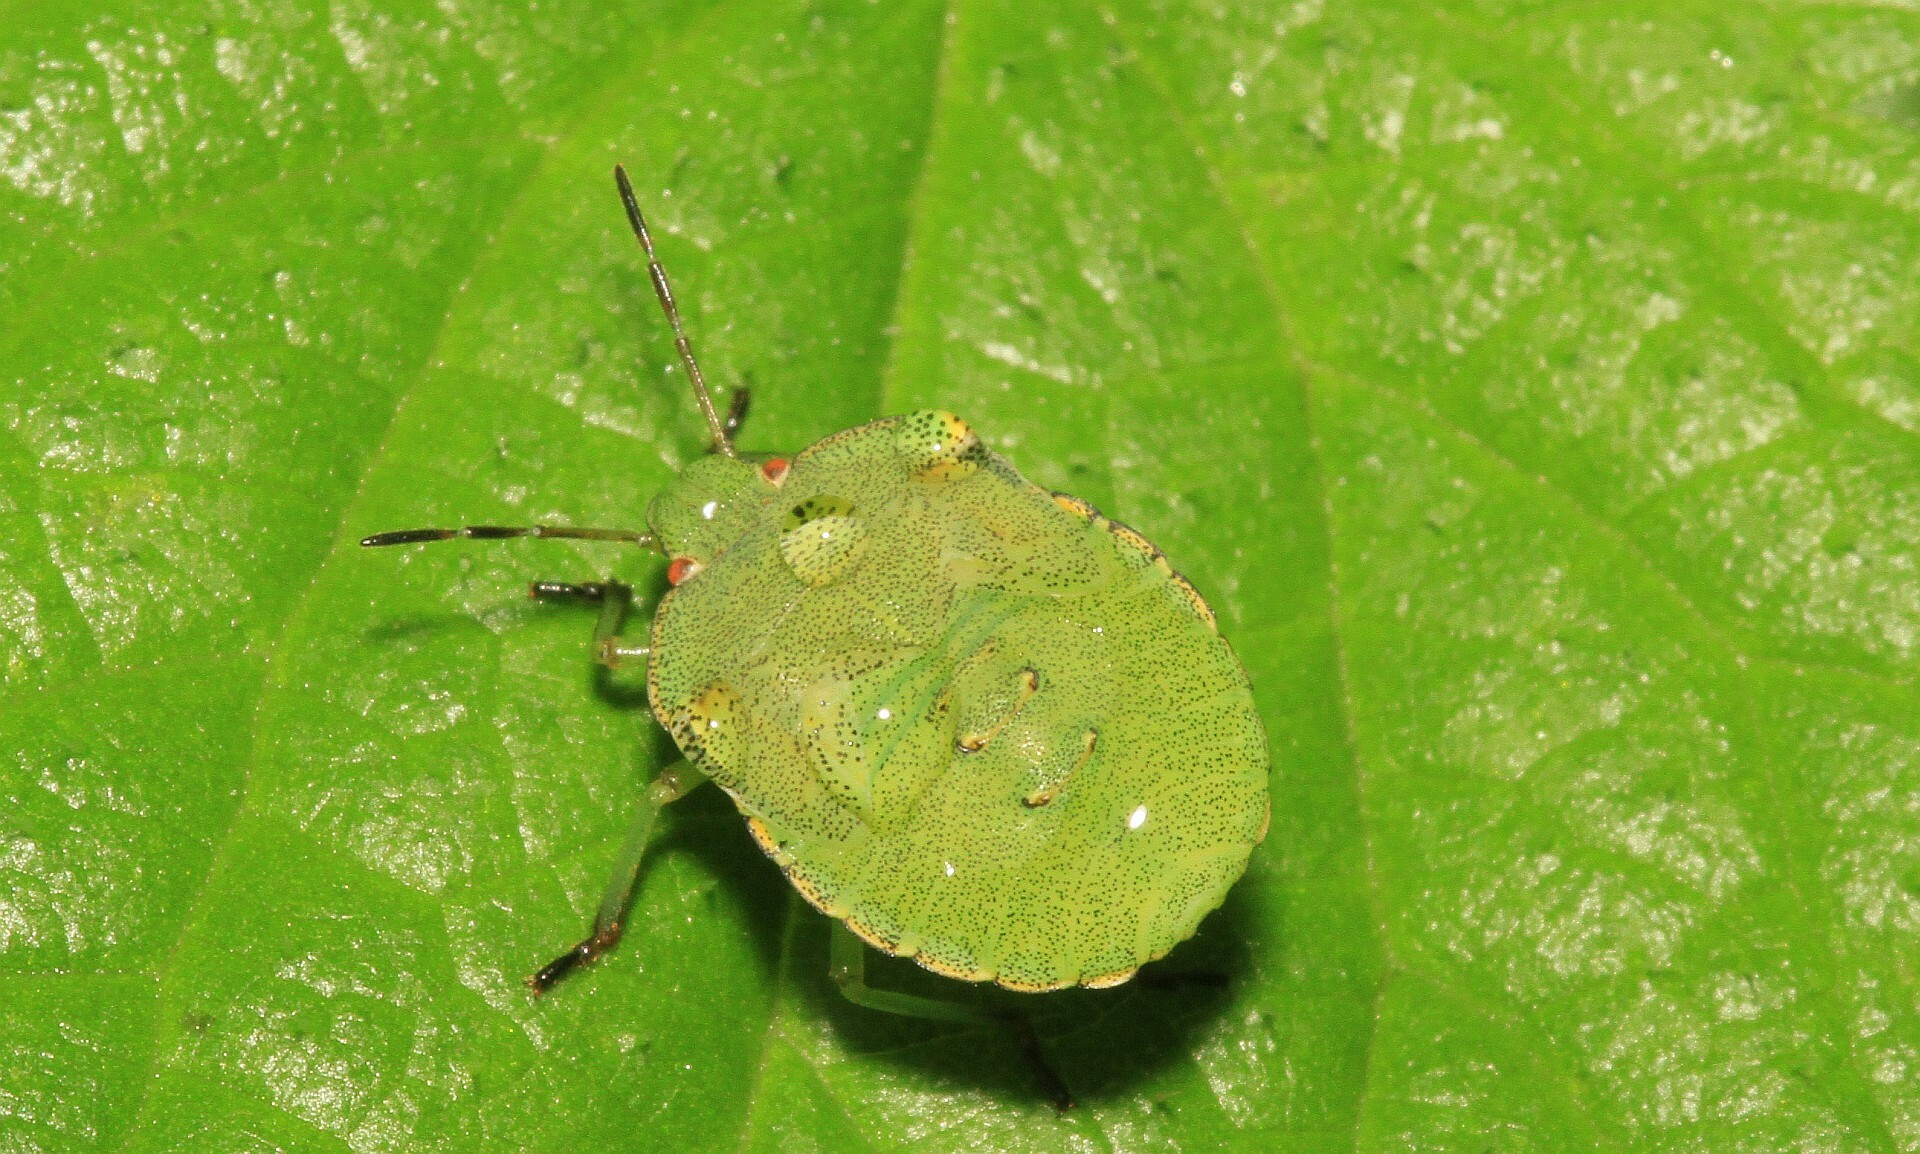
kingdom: Animalia
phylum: Arthropoda
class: Insecta
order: Hemiptera
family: Pentatomidae
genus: Palomena
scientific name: Palomena prasina
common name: Green shieldbug
